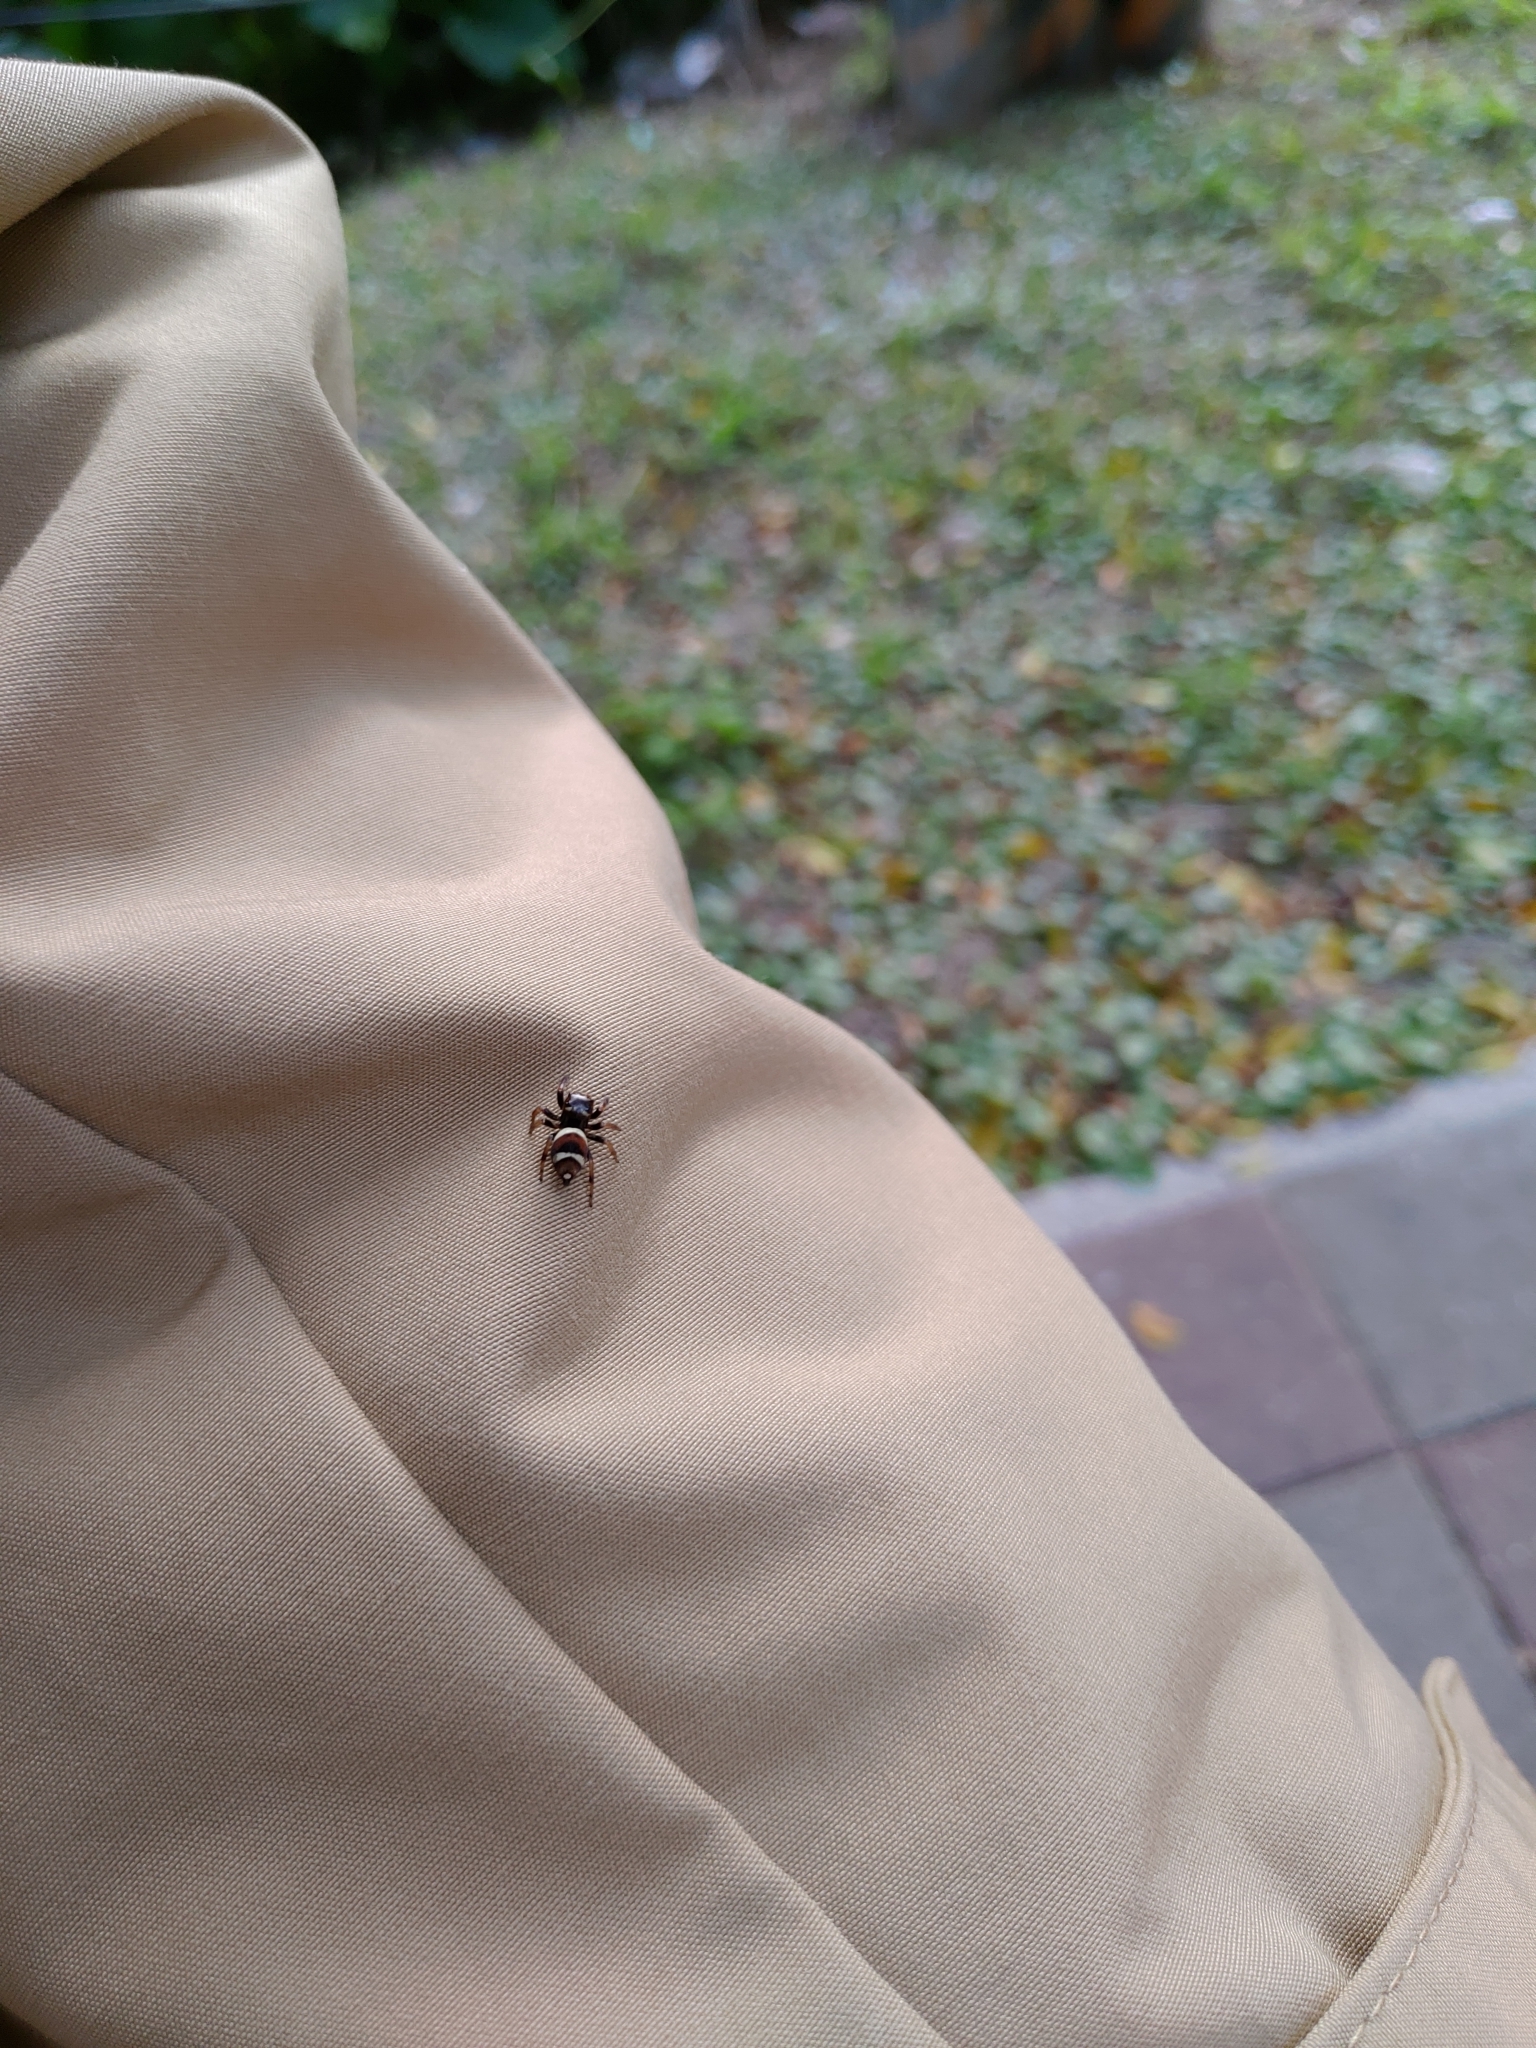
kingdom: Animalia
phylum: Arthropoda
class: Arachnida
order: Araneae
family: Salticidae
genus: Ptocasius
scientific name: Ptocasius strupifer
